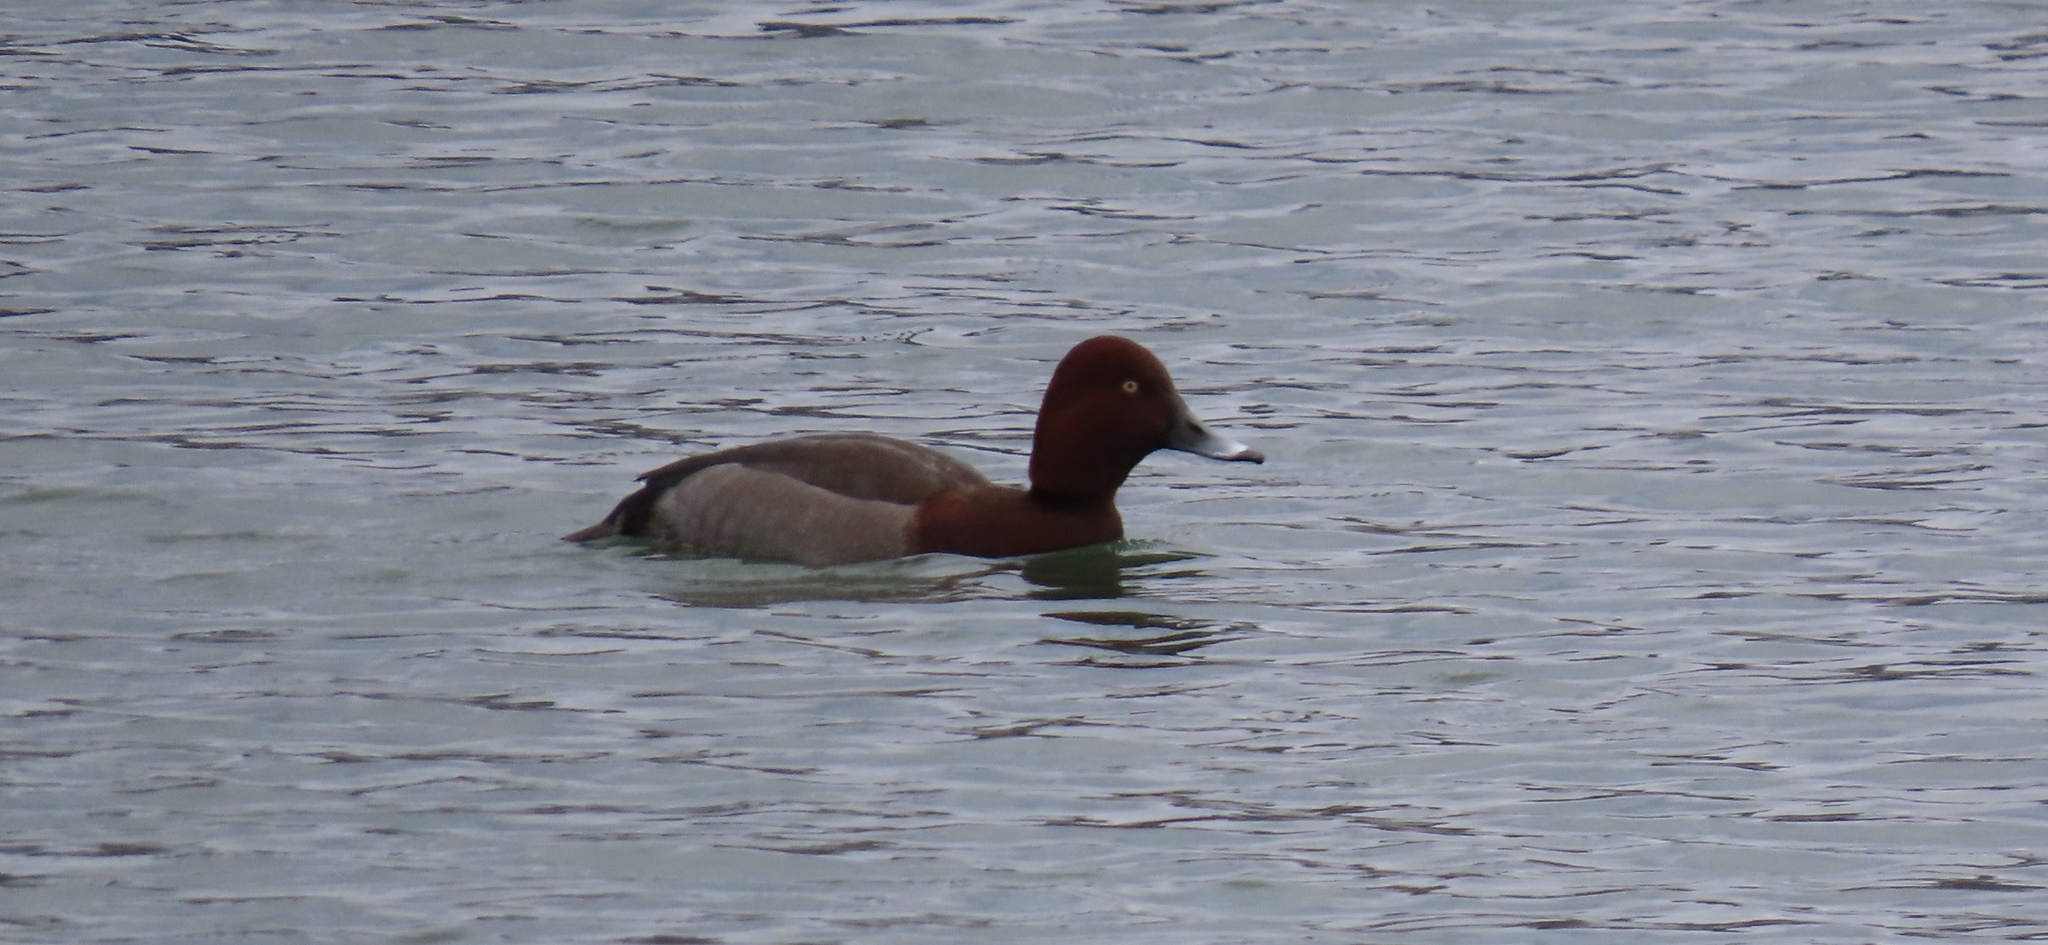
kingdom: Animalia
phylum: Chordata
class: Aves
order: Anseriformes
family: Anatidae
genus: Aythya
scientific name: Aythya
